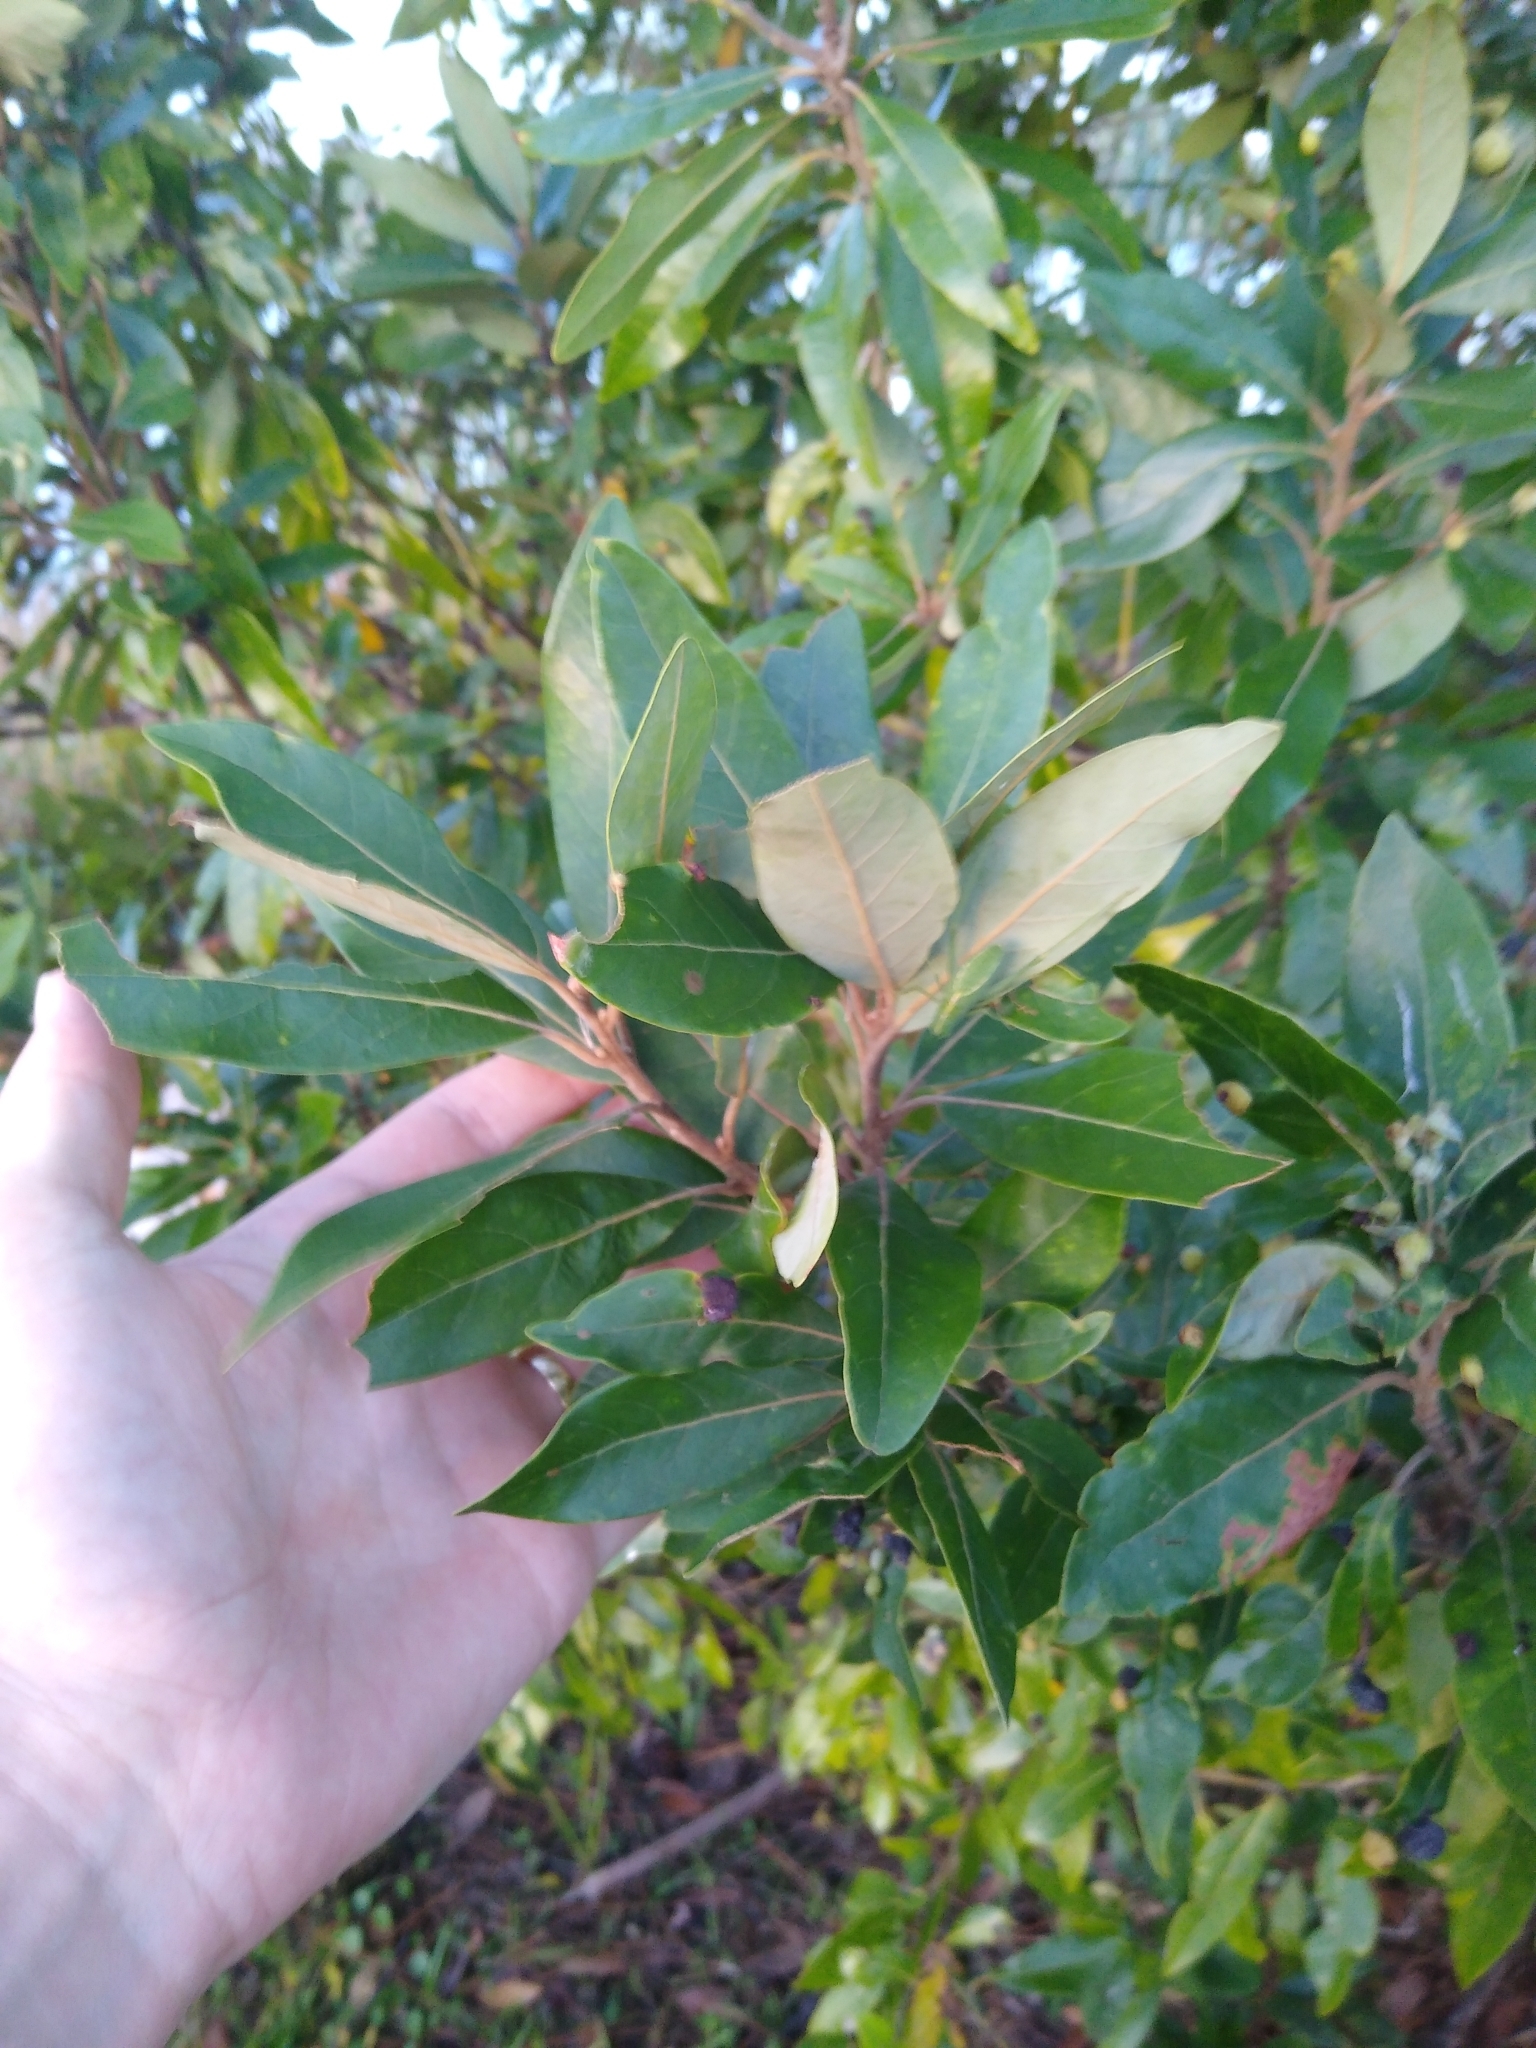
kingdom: Plantae
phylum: Tracheophyta
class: Magnoliopsida
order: Laurales
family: Lauraceae
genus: Persea
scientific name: Persea palustris
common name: Swampbay
